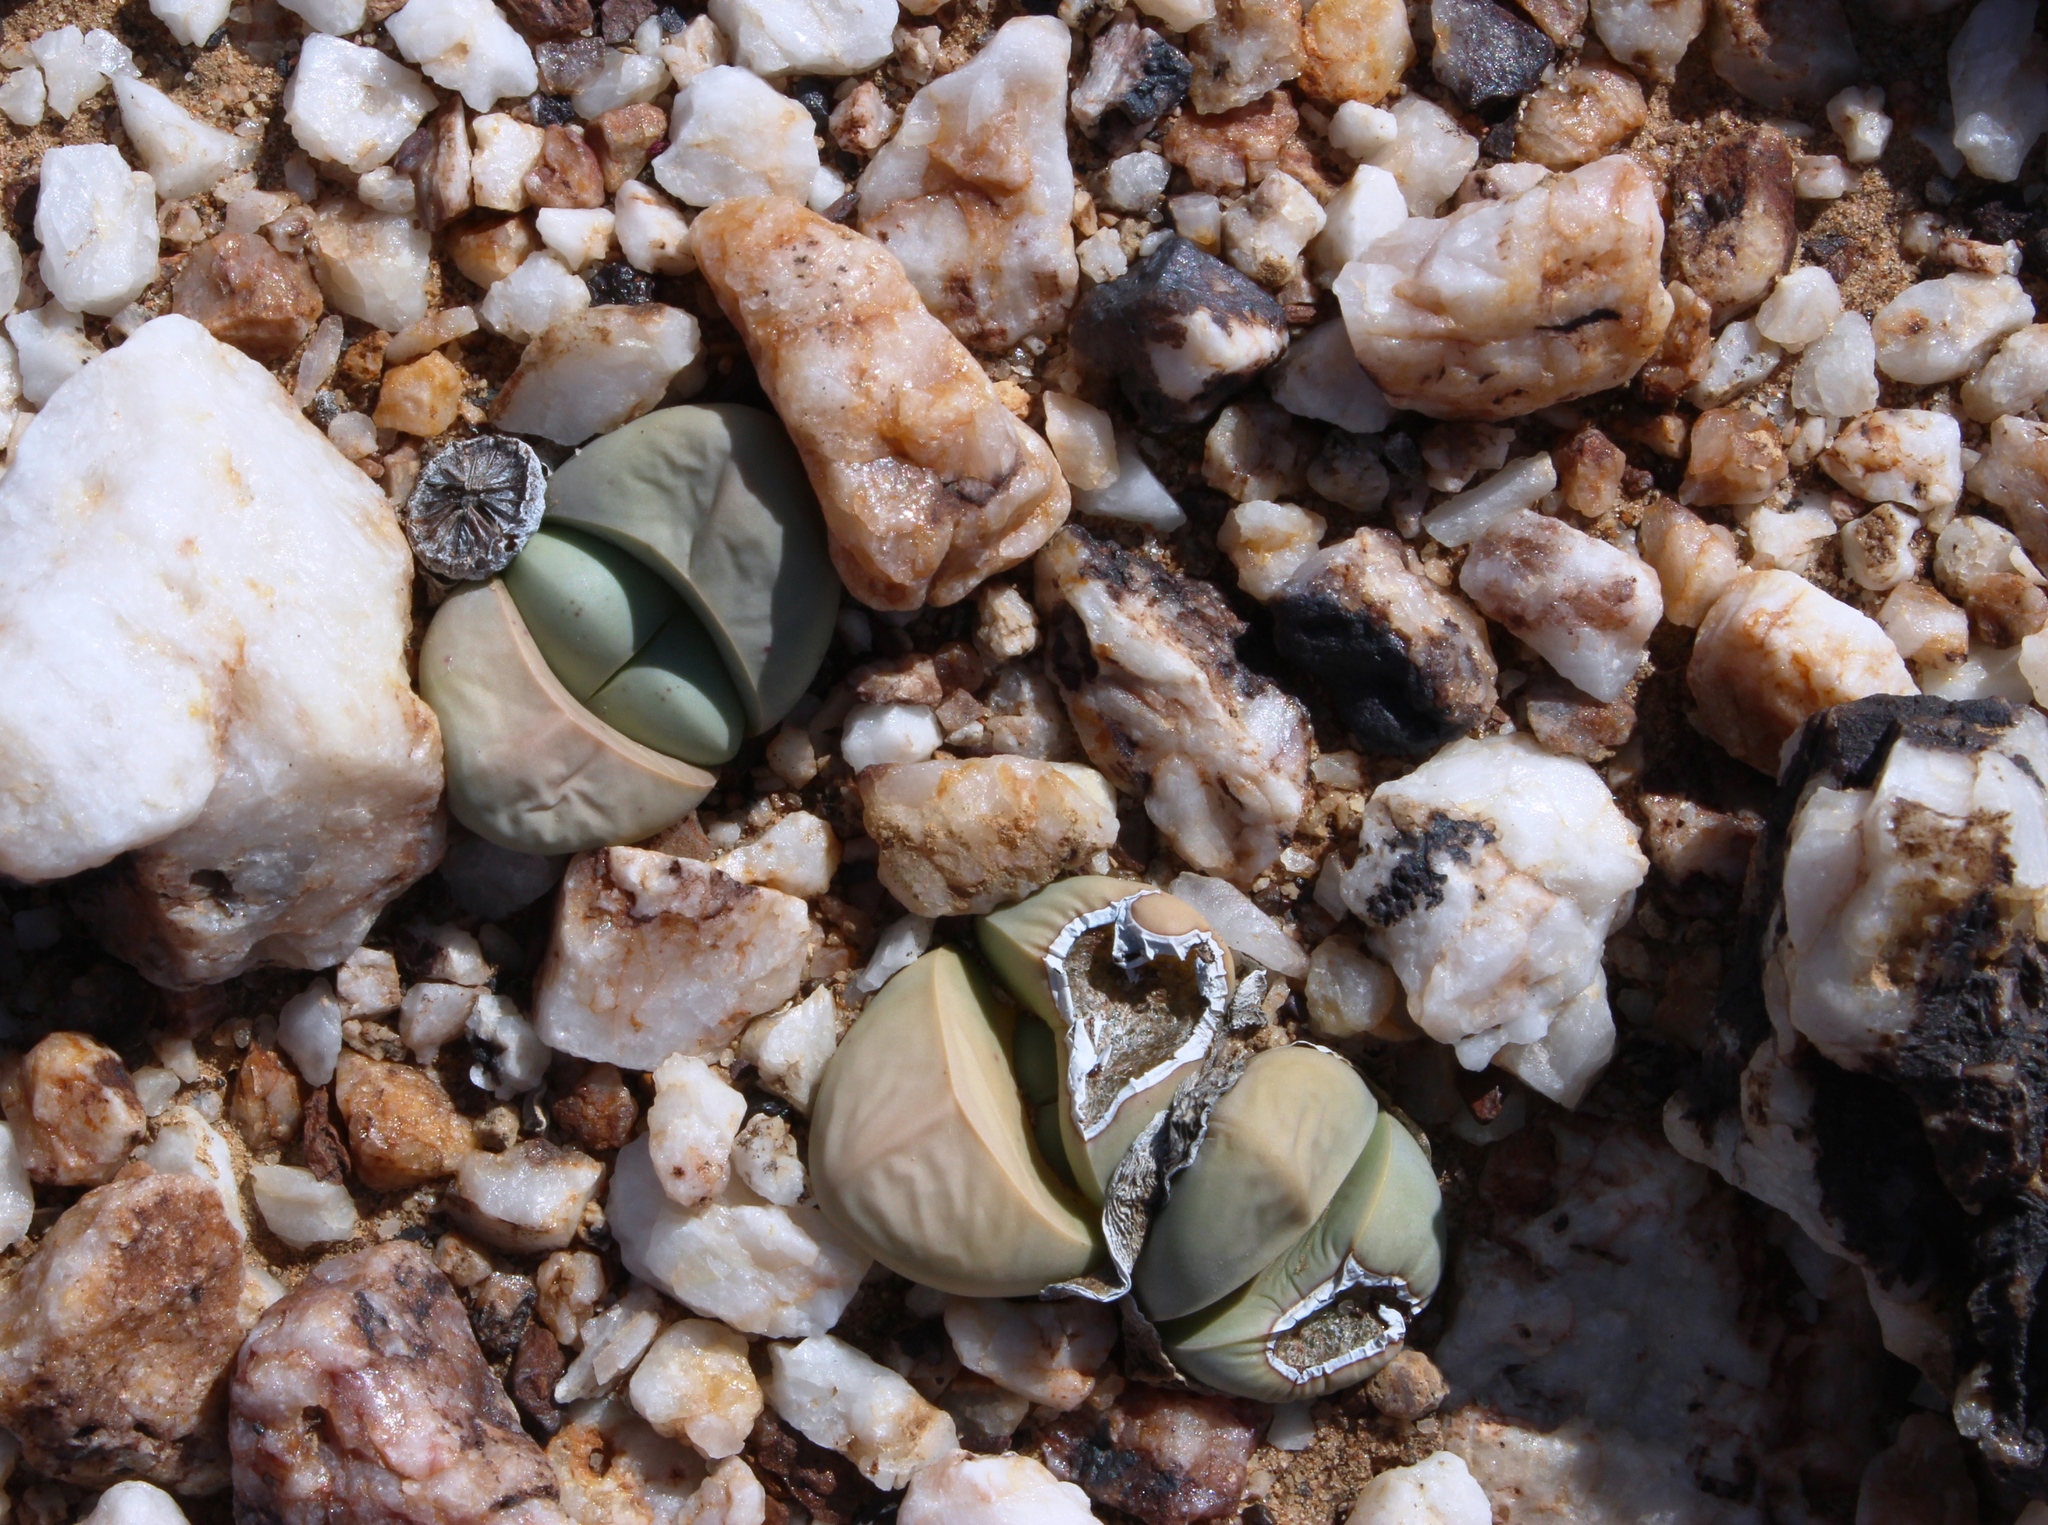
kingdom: Plantae
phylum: Tracheophyta
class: Magnoliopsida
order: Caryophyllales
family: Aizoaceae
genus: Argyroderma
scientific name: Argyroderma delaetii
